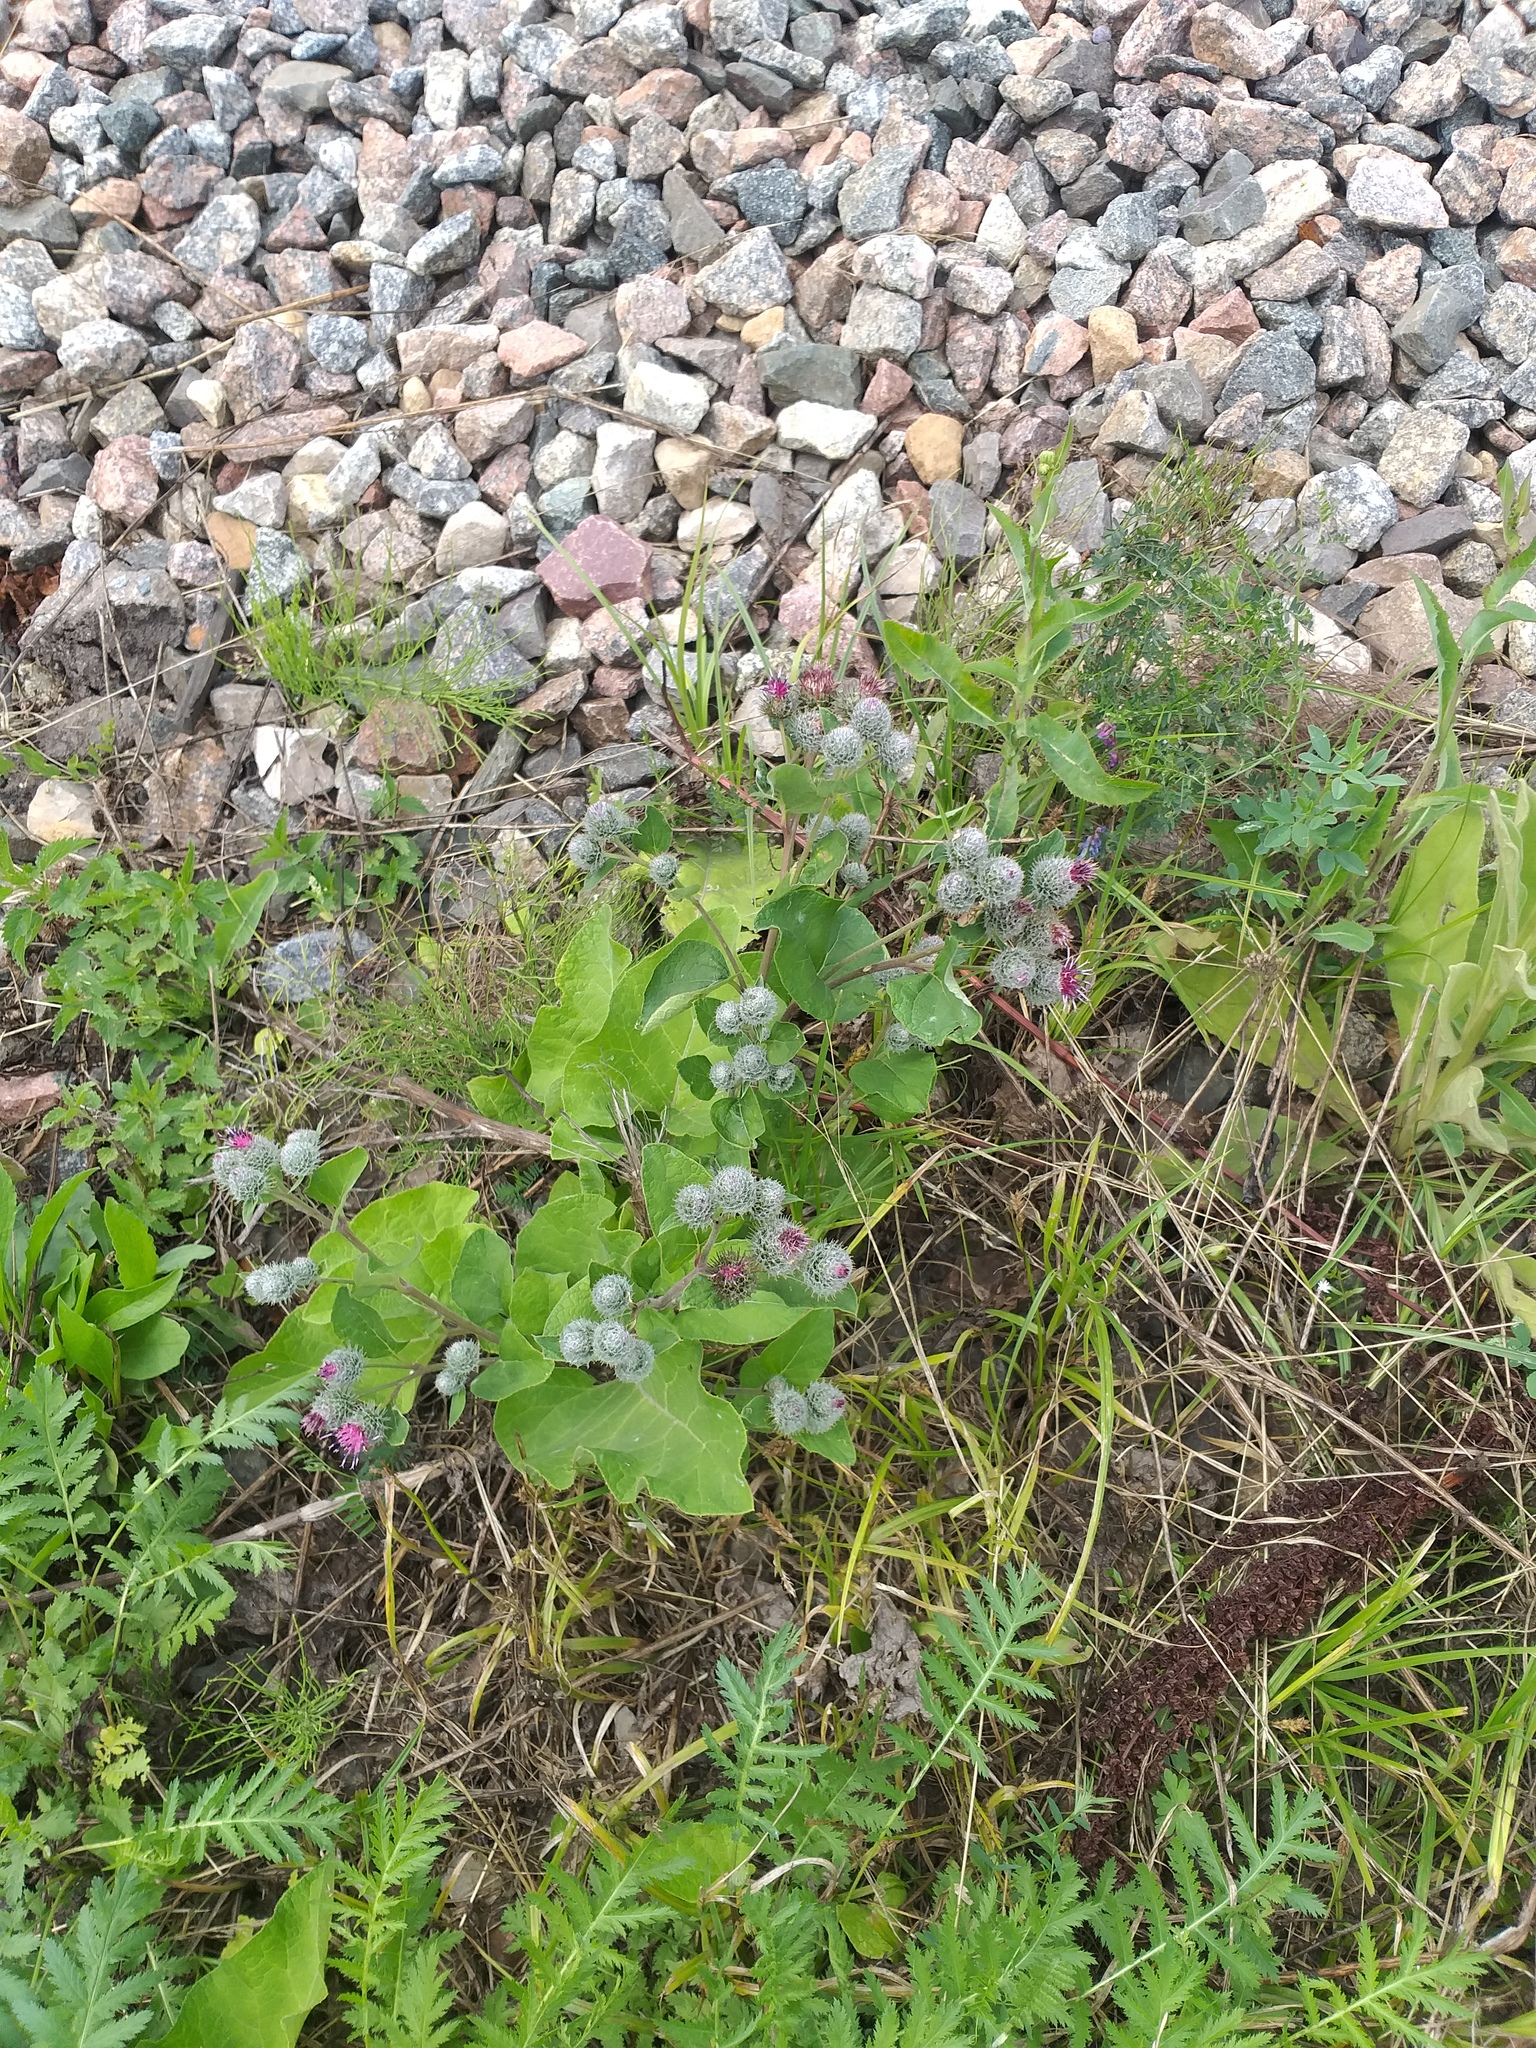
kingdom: Plantae
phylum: Tracheophyta
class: Magnoliopsida
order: Asterales
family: Asteraceae
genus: Arctium
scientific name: Arctium tomentosum
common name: Woolly burdock
